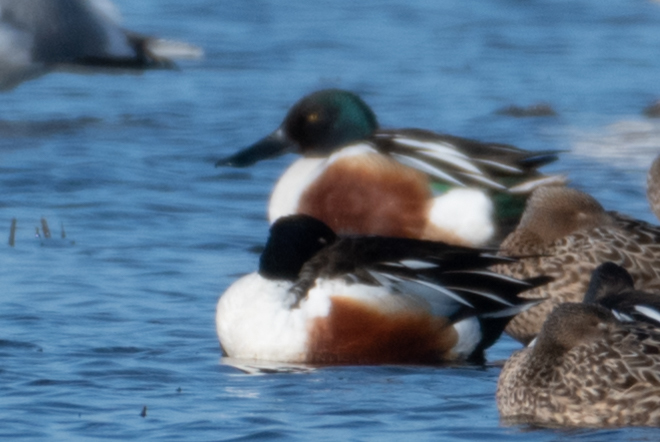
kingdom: Animalia
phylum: Chordata
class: Aves
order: Anseriformes
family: Anatidae
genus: Spatula
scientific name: Spatula clypeata
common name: Northern shoveler
